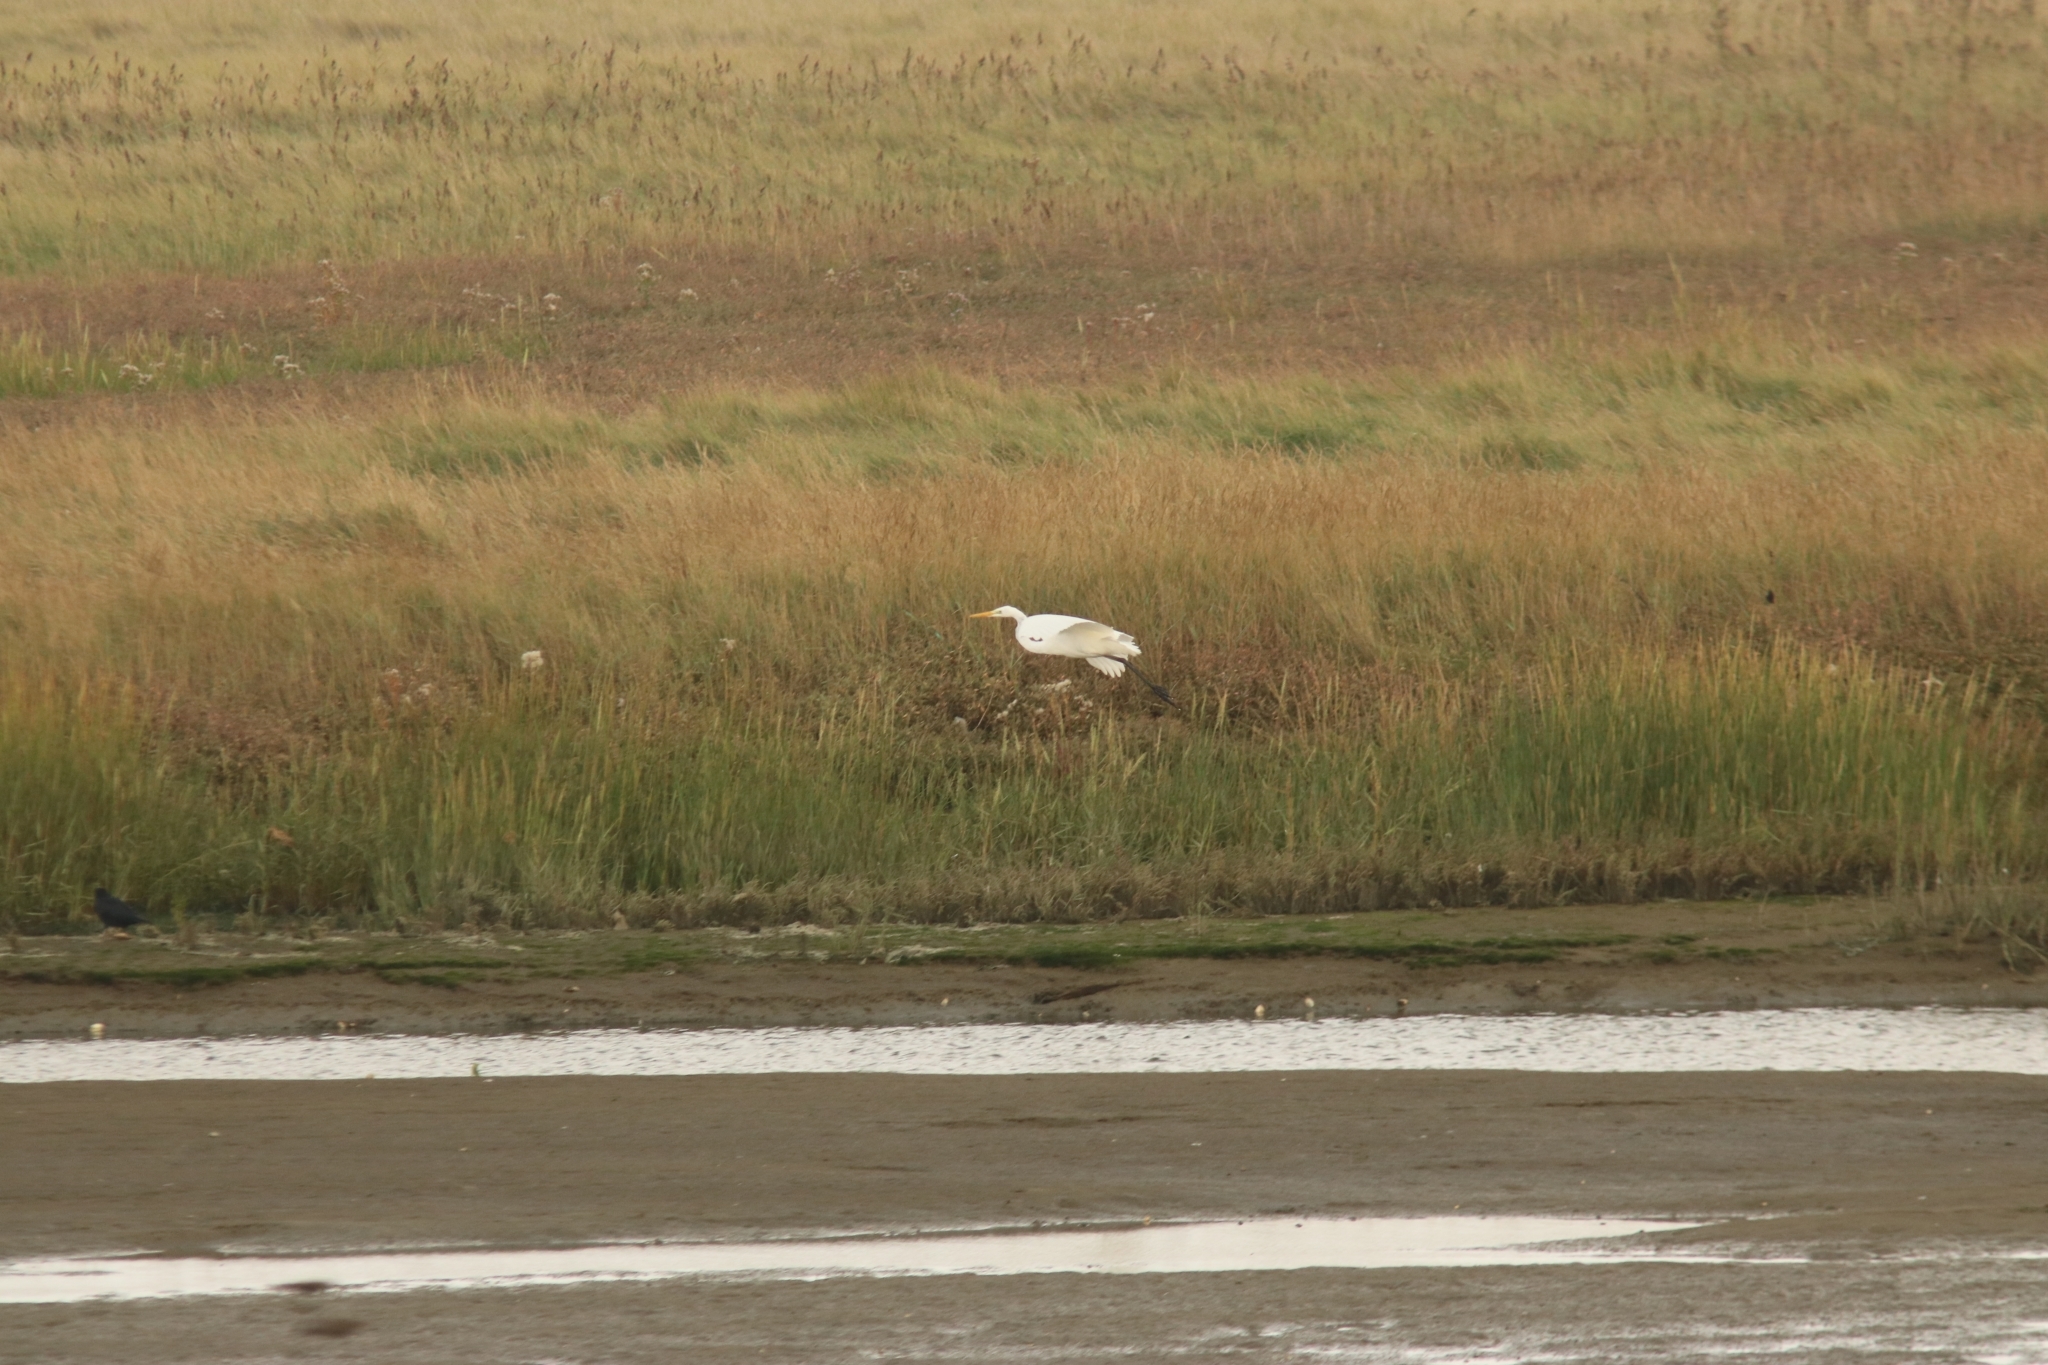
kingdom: Animalia
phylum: Chordata
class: Aves
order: Pelecaniformes
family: Ardeidae
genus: Ardea
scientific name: Ardea alba
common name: Great egret
